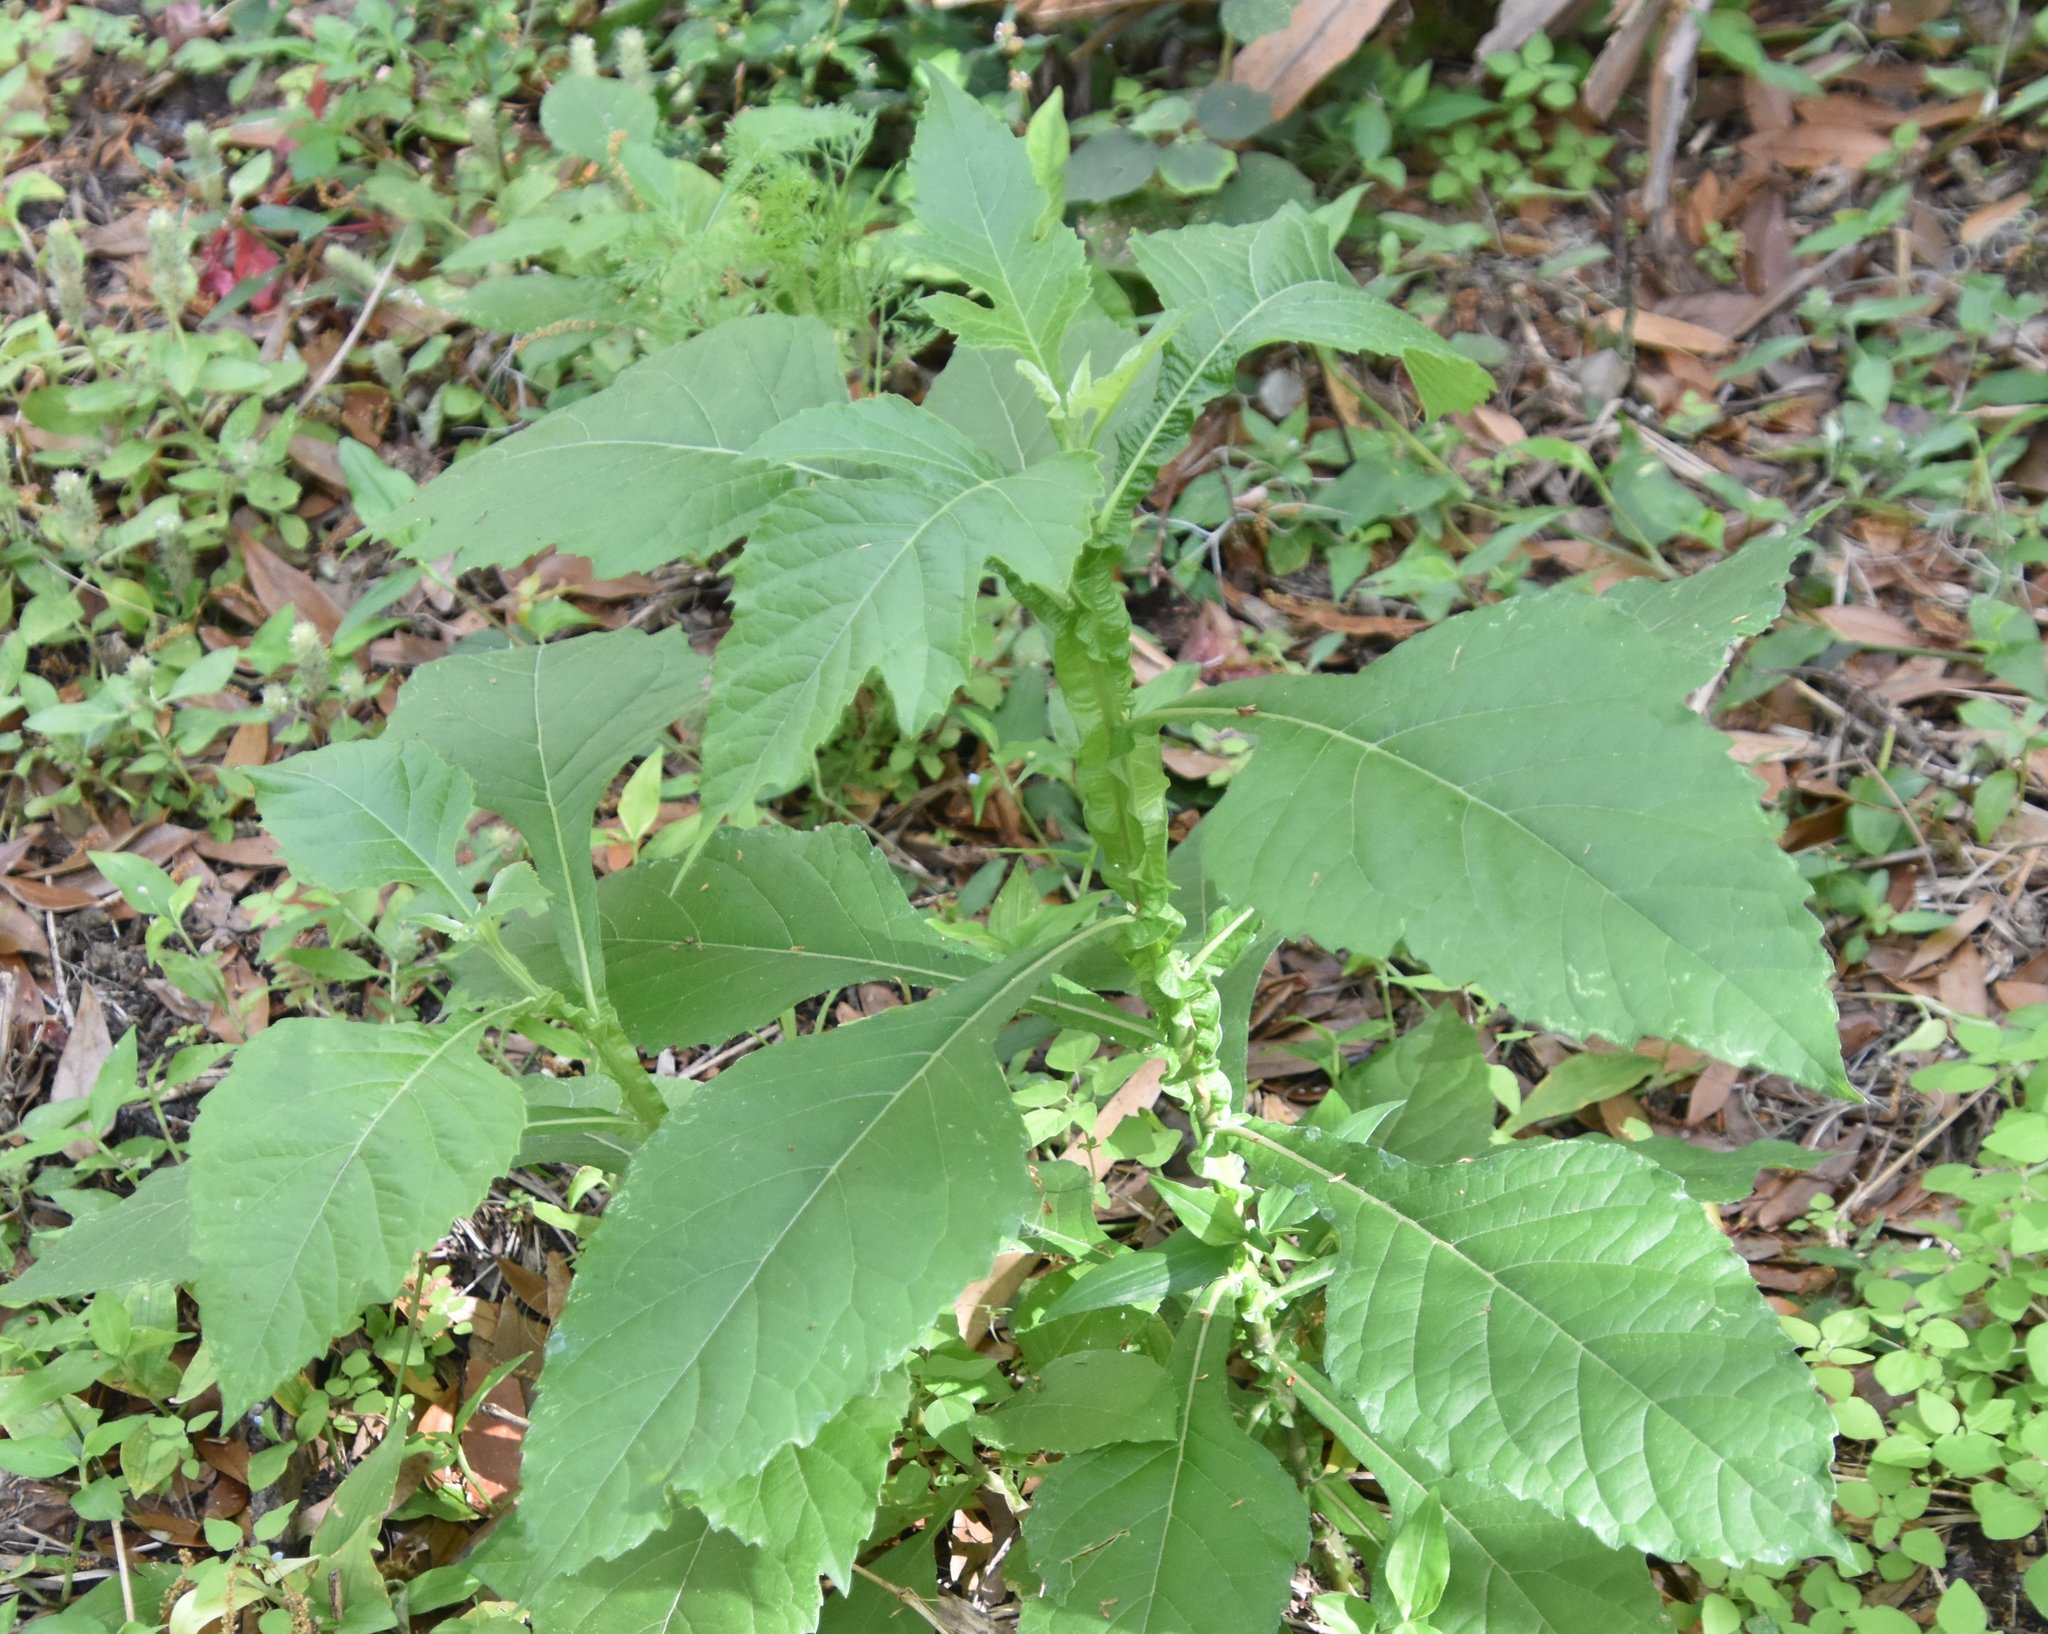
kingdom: Plantae
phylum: Tracheophyta
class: Magnoliopsida
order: Asterales
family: Asteraceae
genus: Verbesina
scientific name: Verbesina virginica
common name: Frostweed
